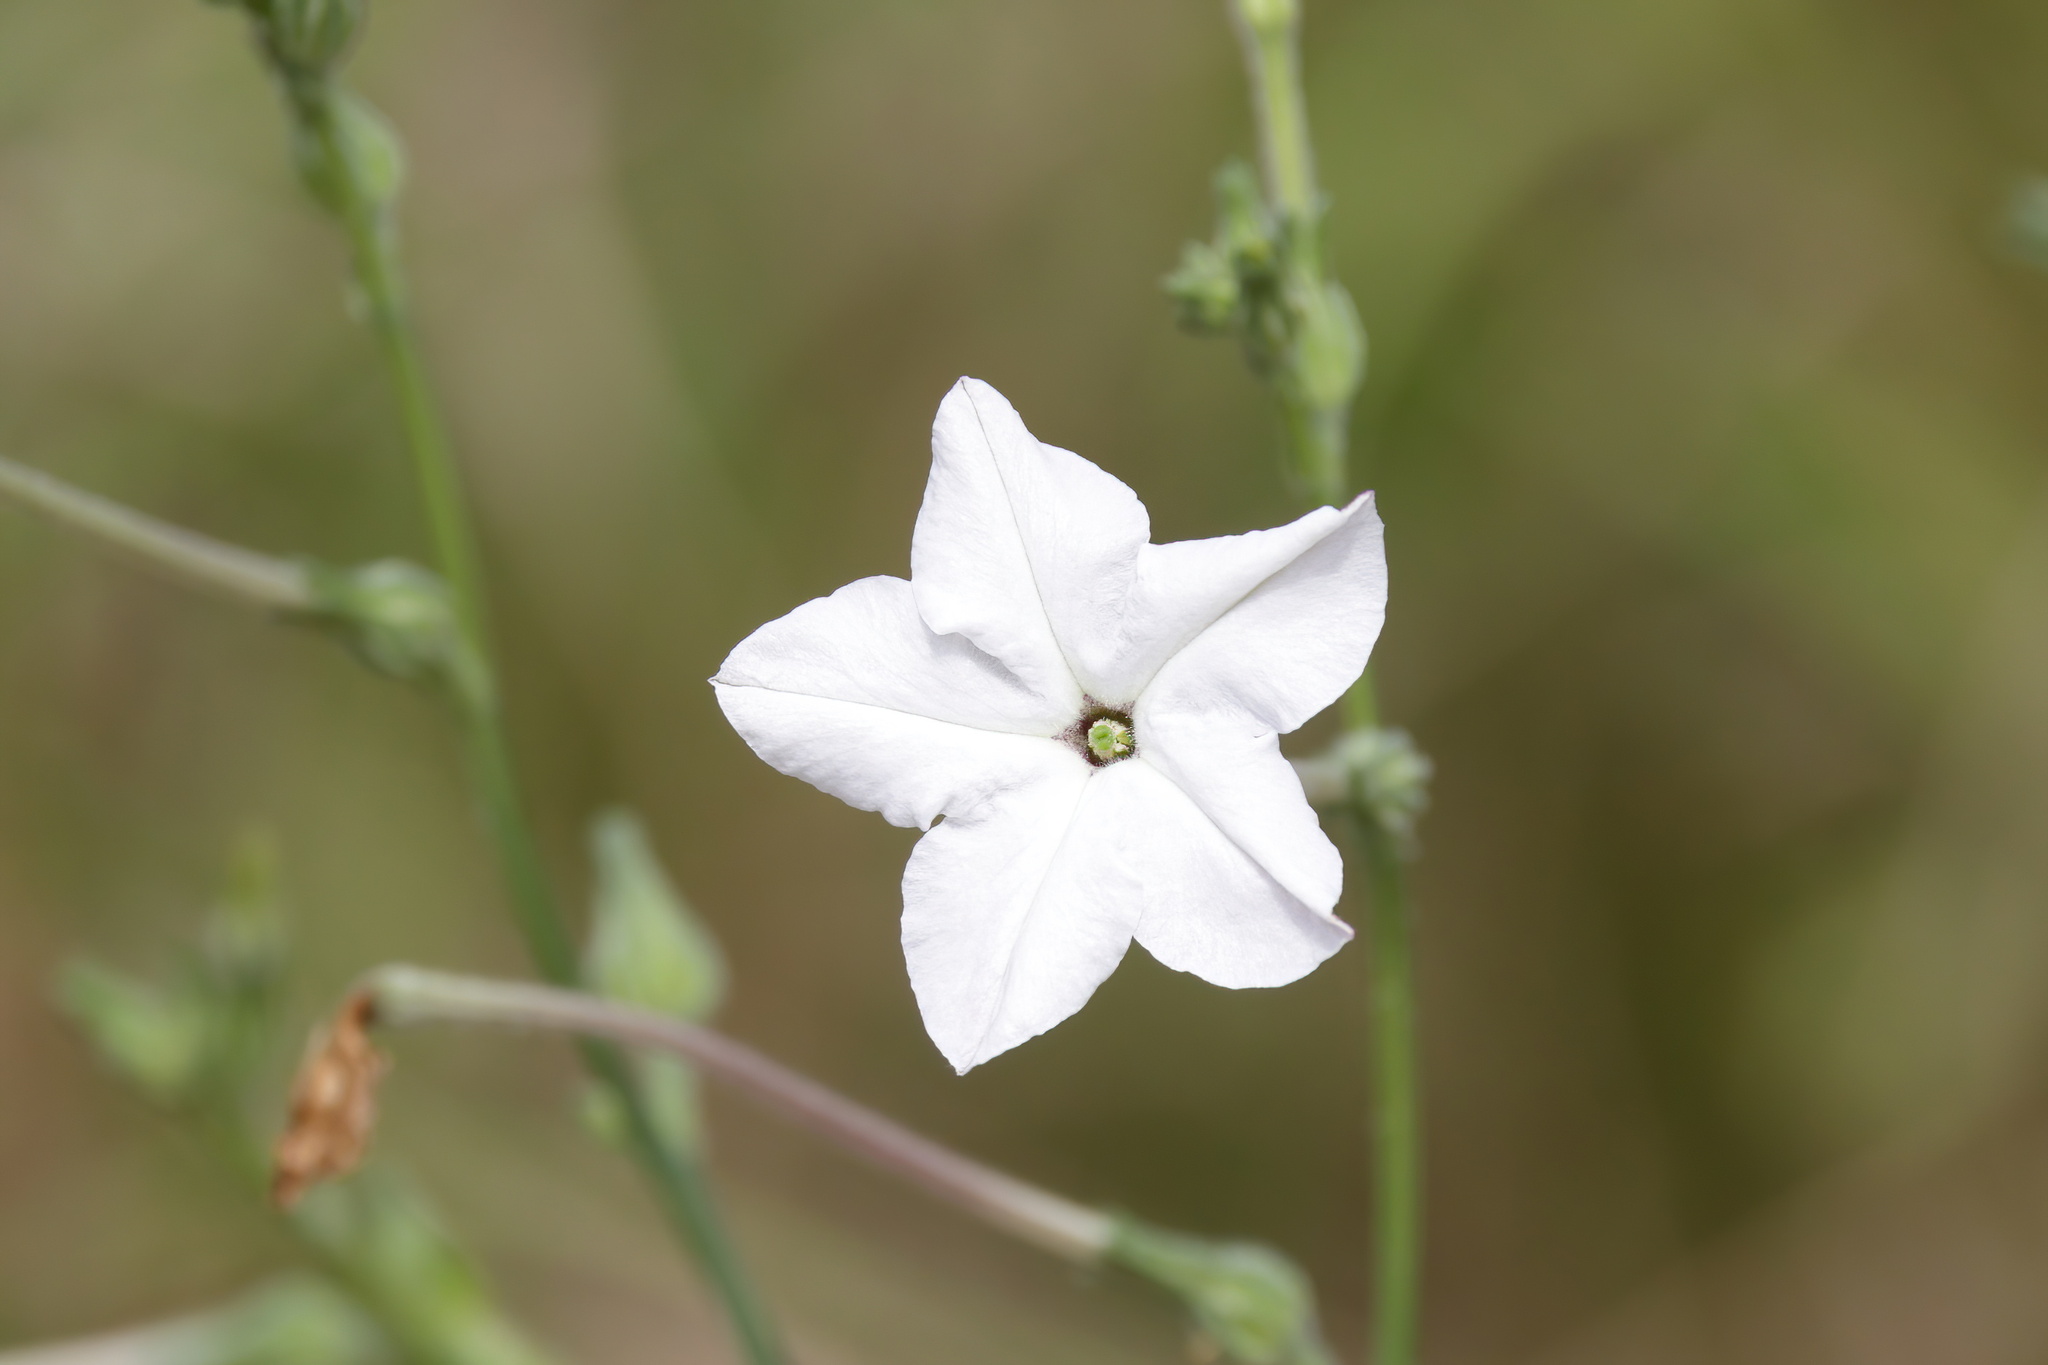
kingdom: Plantae
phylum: Tracheophyta
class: Magnoliopsida
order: Solanales
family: Solanaceae
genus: Nicotiana
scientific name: Nicotiana repanda
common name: Fiddle-leaf tobacco
